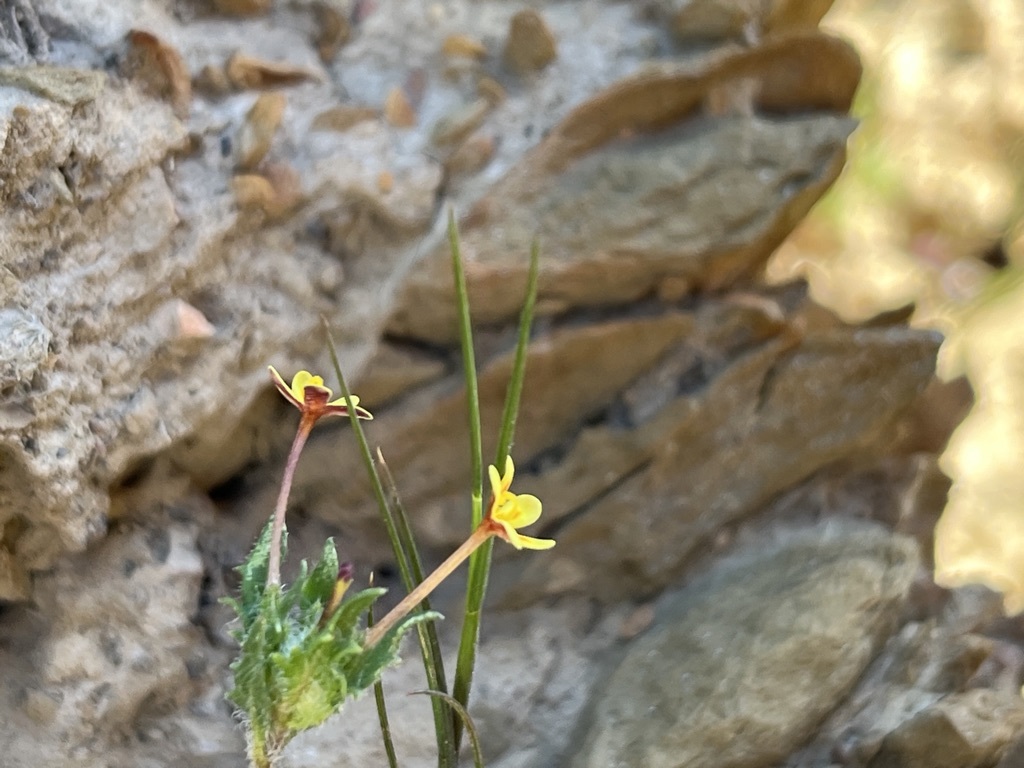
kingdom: Plantae
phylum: Tracheophyta
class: Magnoliopsida
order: Lamiales
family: Scrophulariaceae
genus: Zaluzianskya
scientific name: Zaluzianskya divaricata
